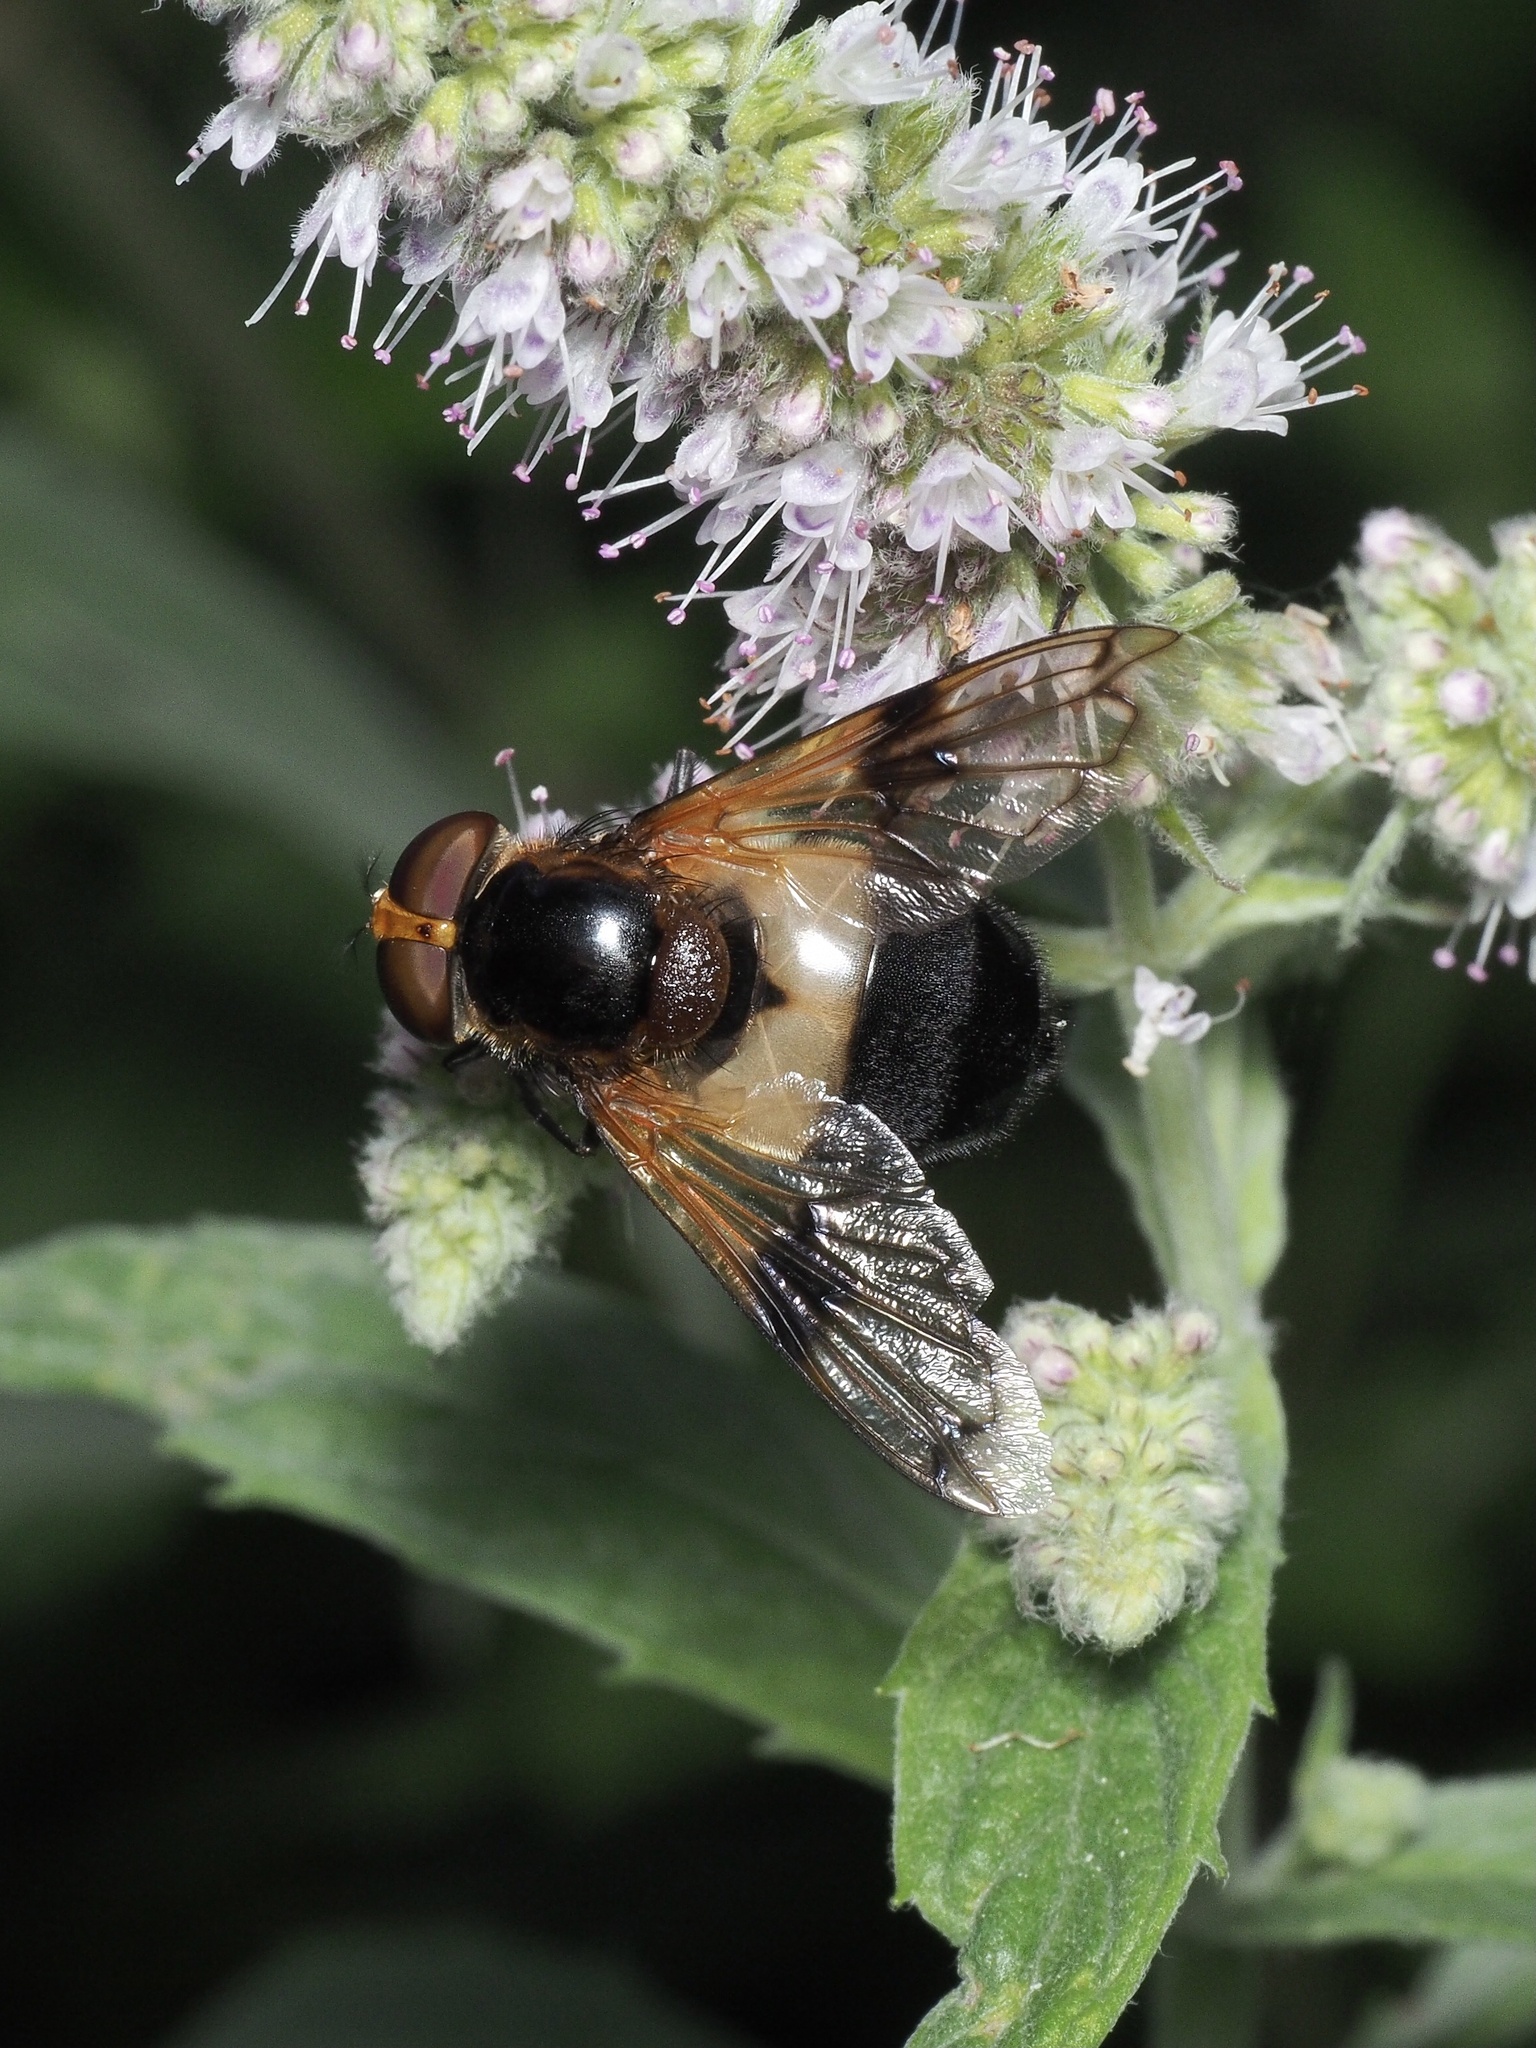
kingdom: Animalia
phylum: Arthropoda
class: Insecta
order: Diptera
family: Syrphidae
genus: Volucella
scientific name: Volucella pellucens
